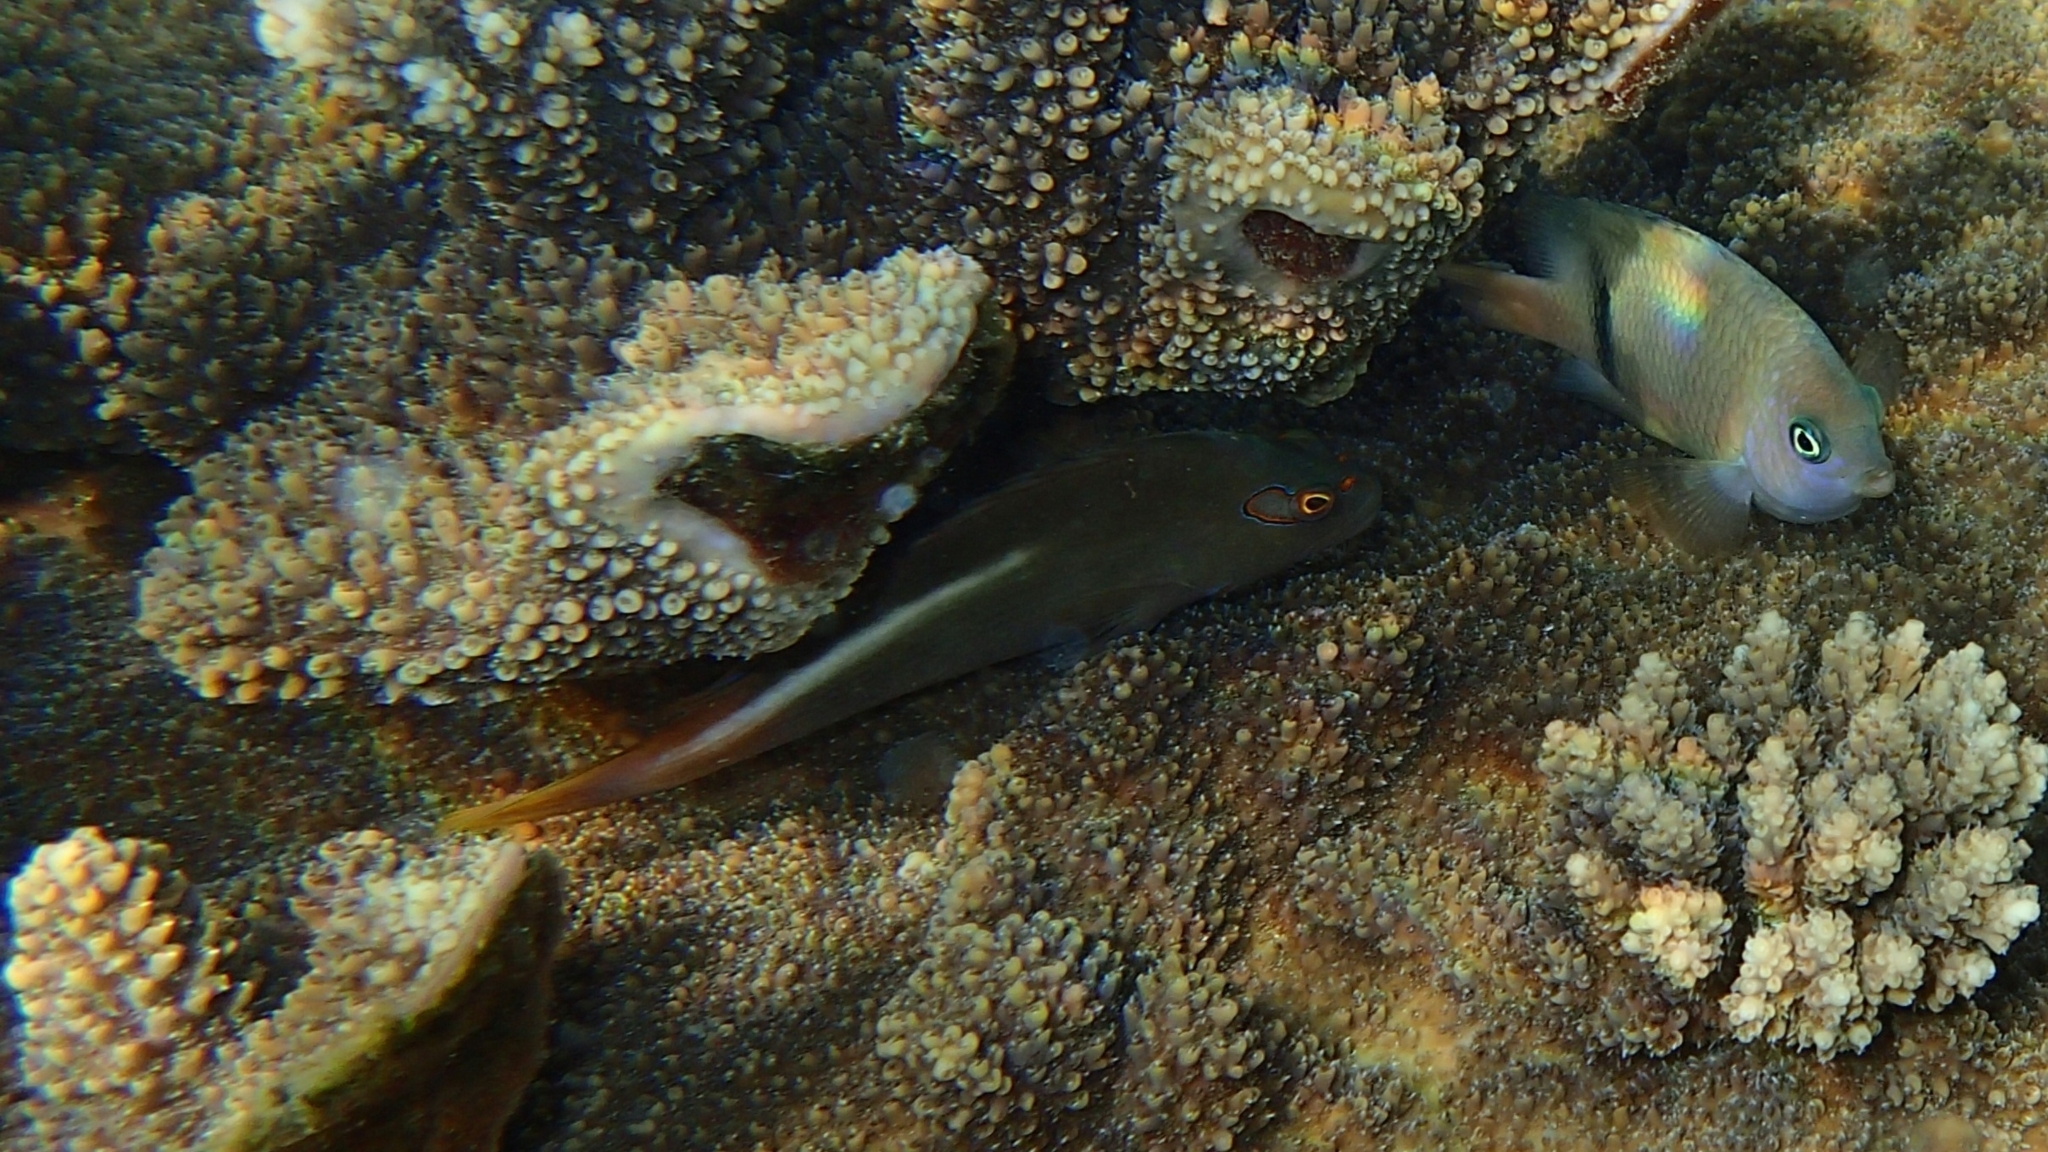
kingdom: Animalia
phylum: Chordata
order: Perciformes
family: Cirrhitidae
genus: Paracirrhites
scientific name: Paracirrhites arcatus
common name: Arc-eye hawkfish
